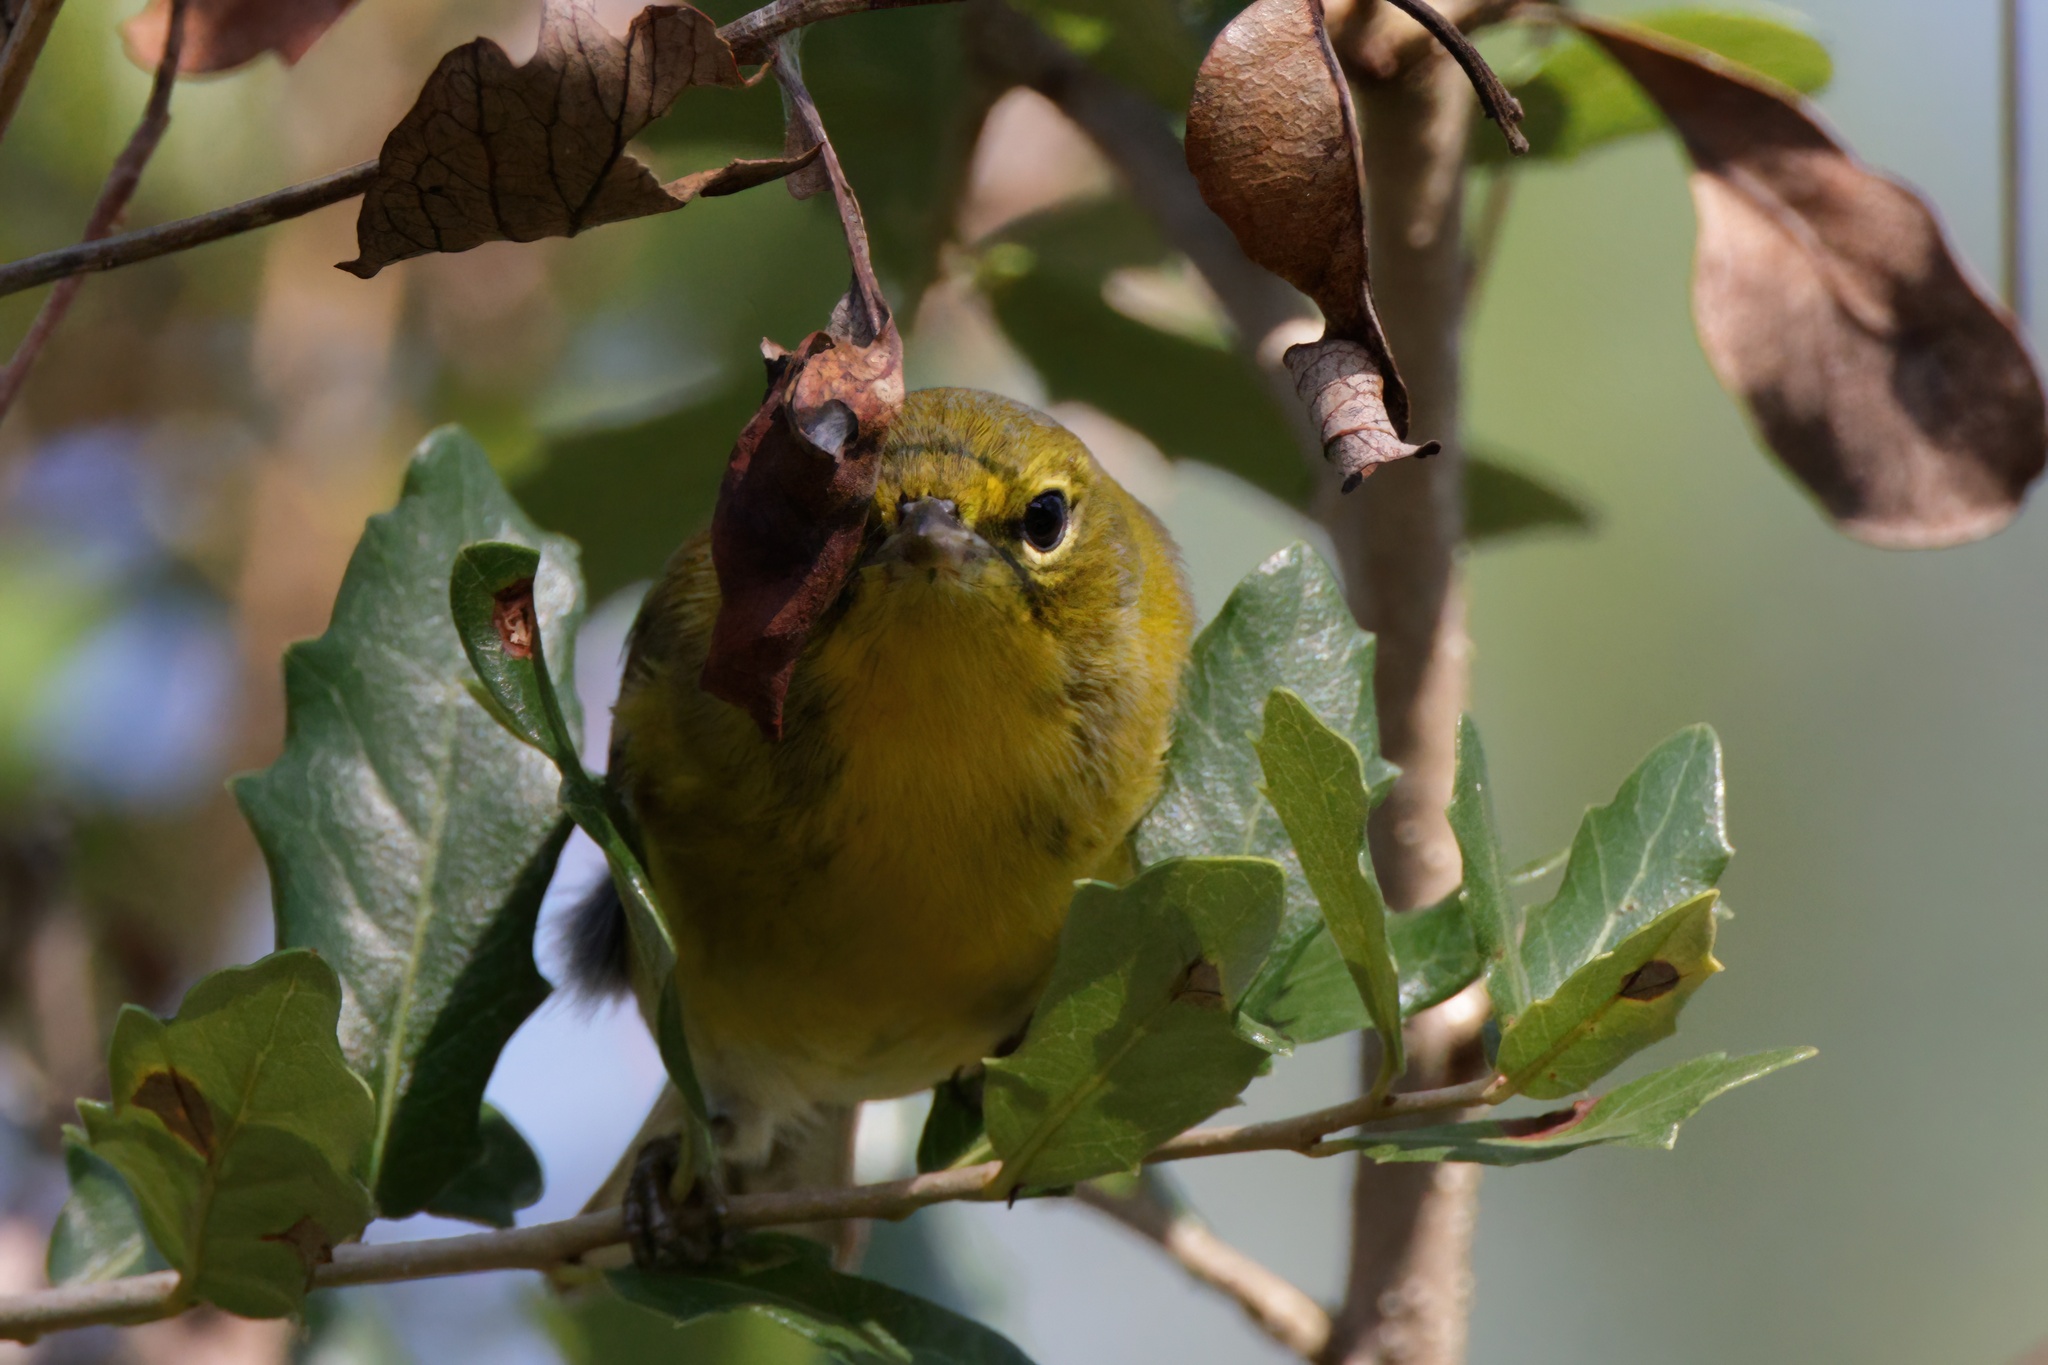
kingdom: Animalia
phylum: Chordata
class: Aves
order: Passeriformes
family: Parulidae
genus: Setophaga
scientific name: Setophaga pinus
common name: Pine warbler
